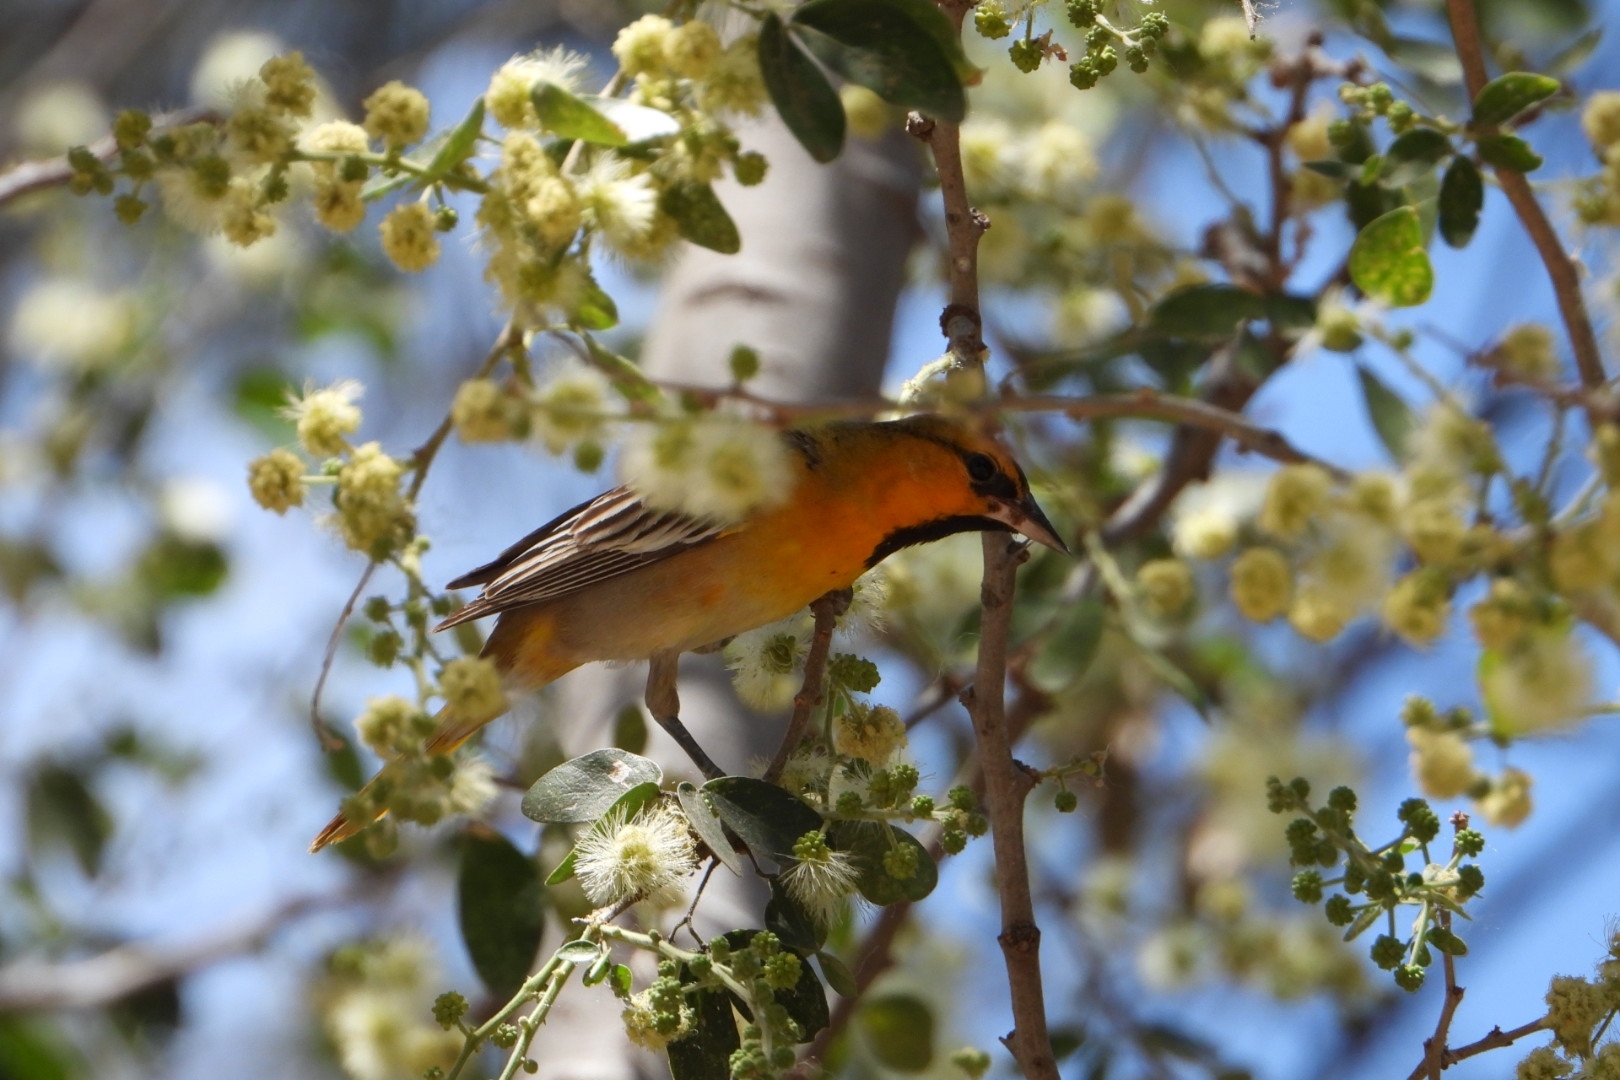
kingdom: Animalia
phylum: Chordata
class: Aves
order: Passeriformes
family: Icteridae
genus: Icterus
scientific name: Icterus bullockii
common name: Bullock's oriole
